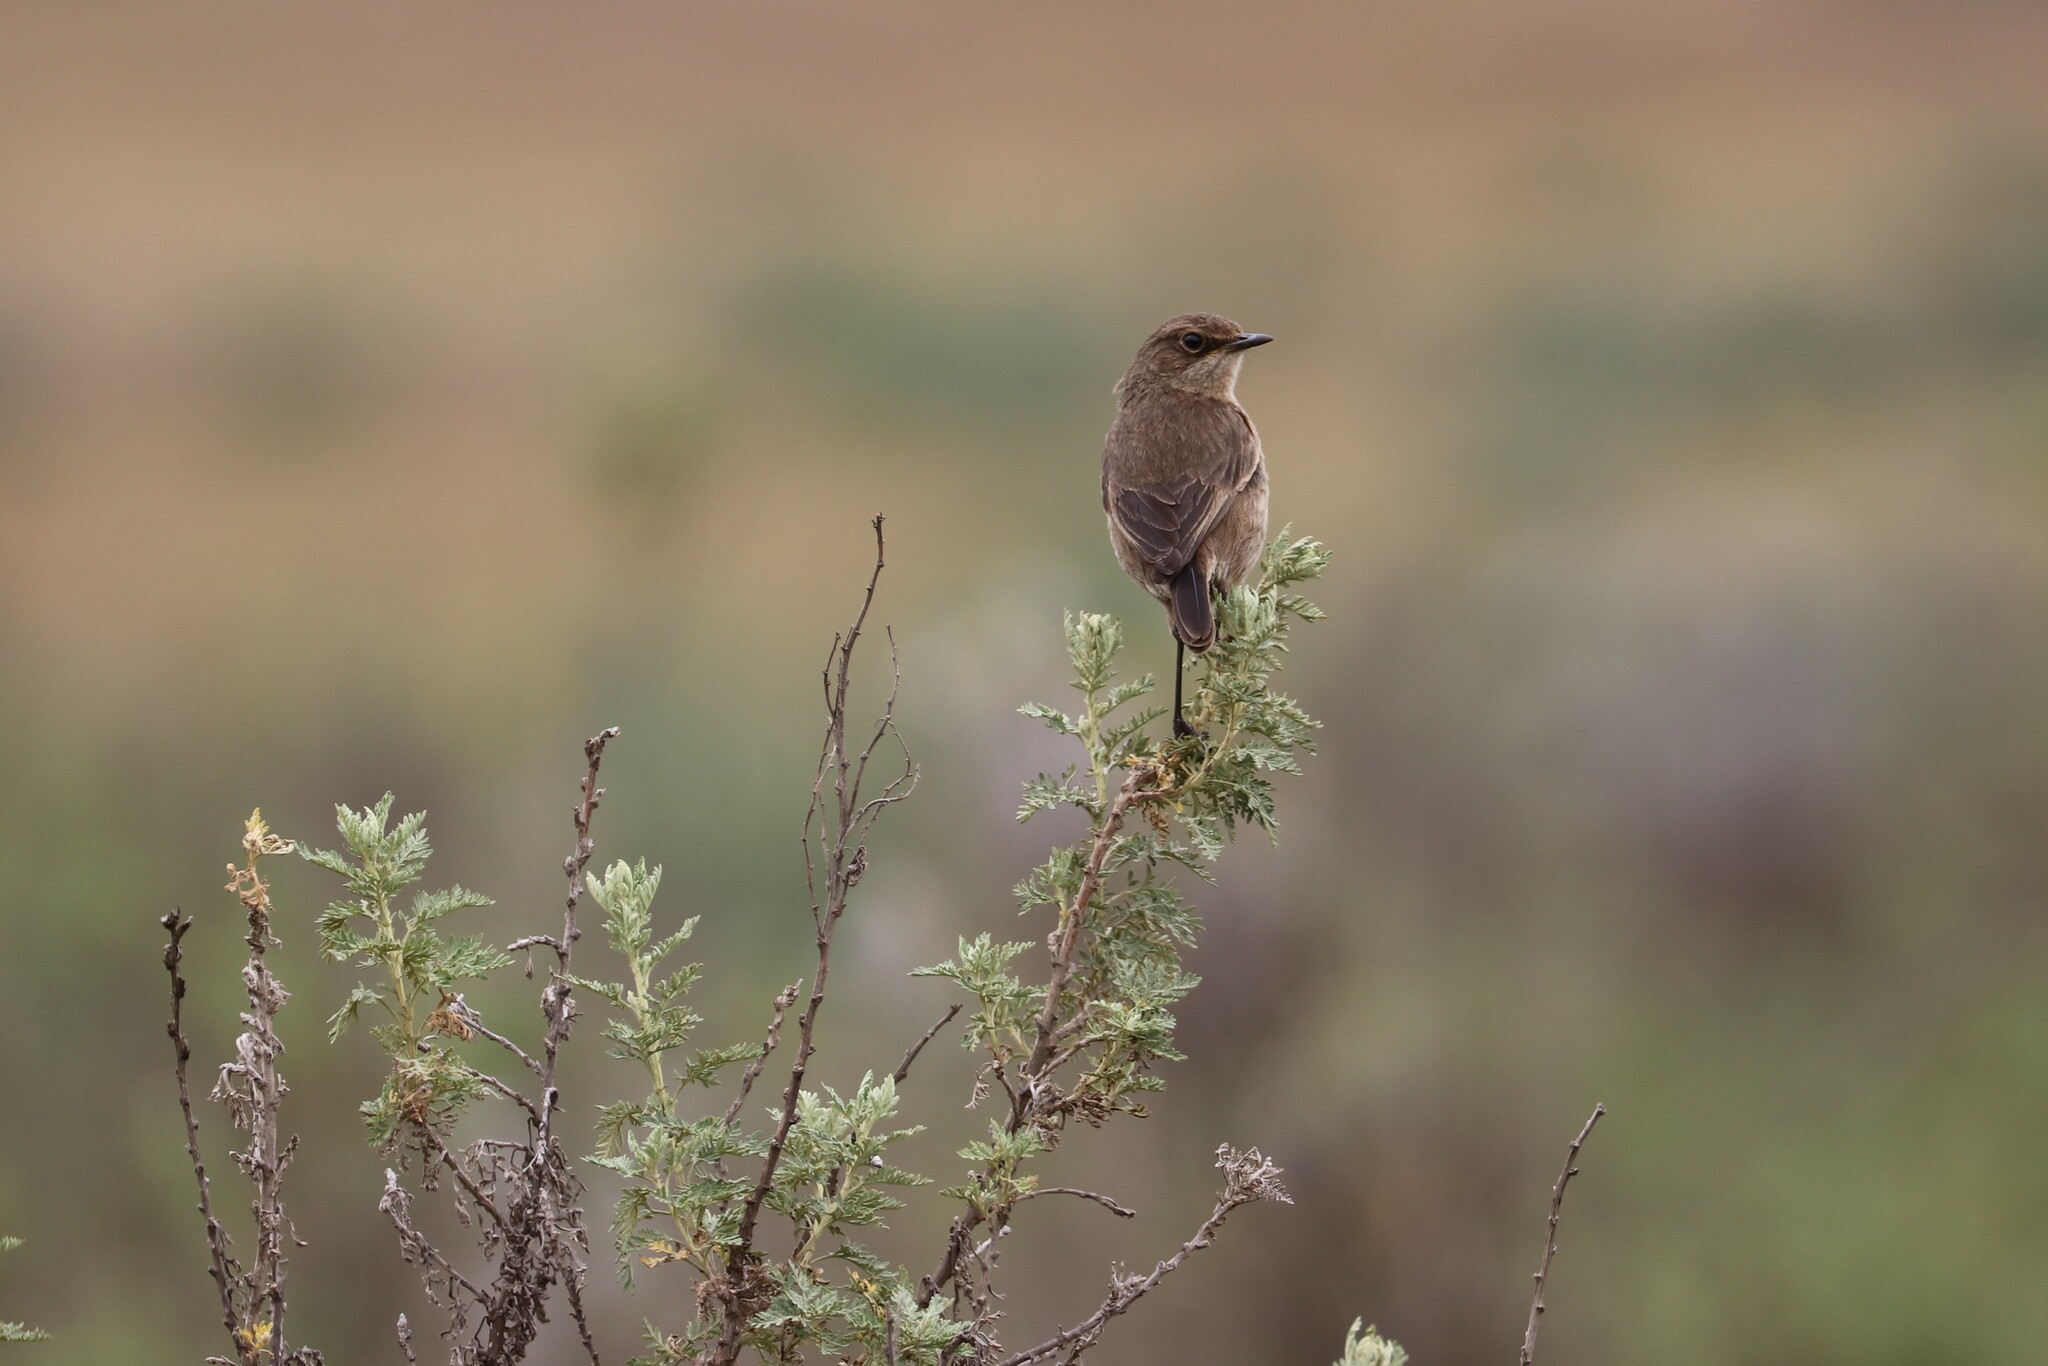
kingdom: Animalia
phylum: Chordata
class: Aves
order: Passeriformes
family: Muscicapidae
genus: Pinarochroa
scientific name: Pinarochroa sordida
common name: Moorland chat
